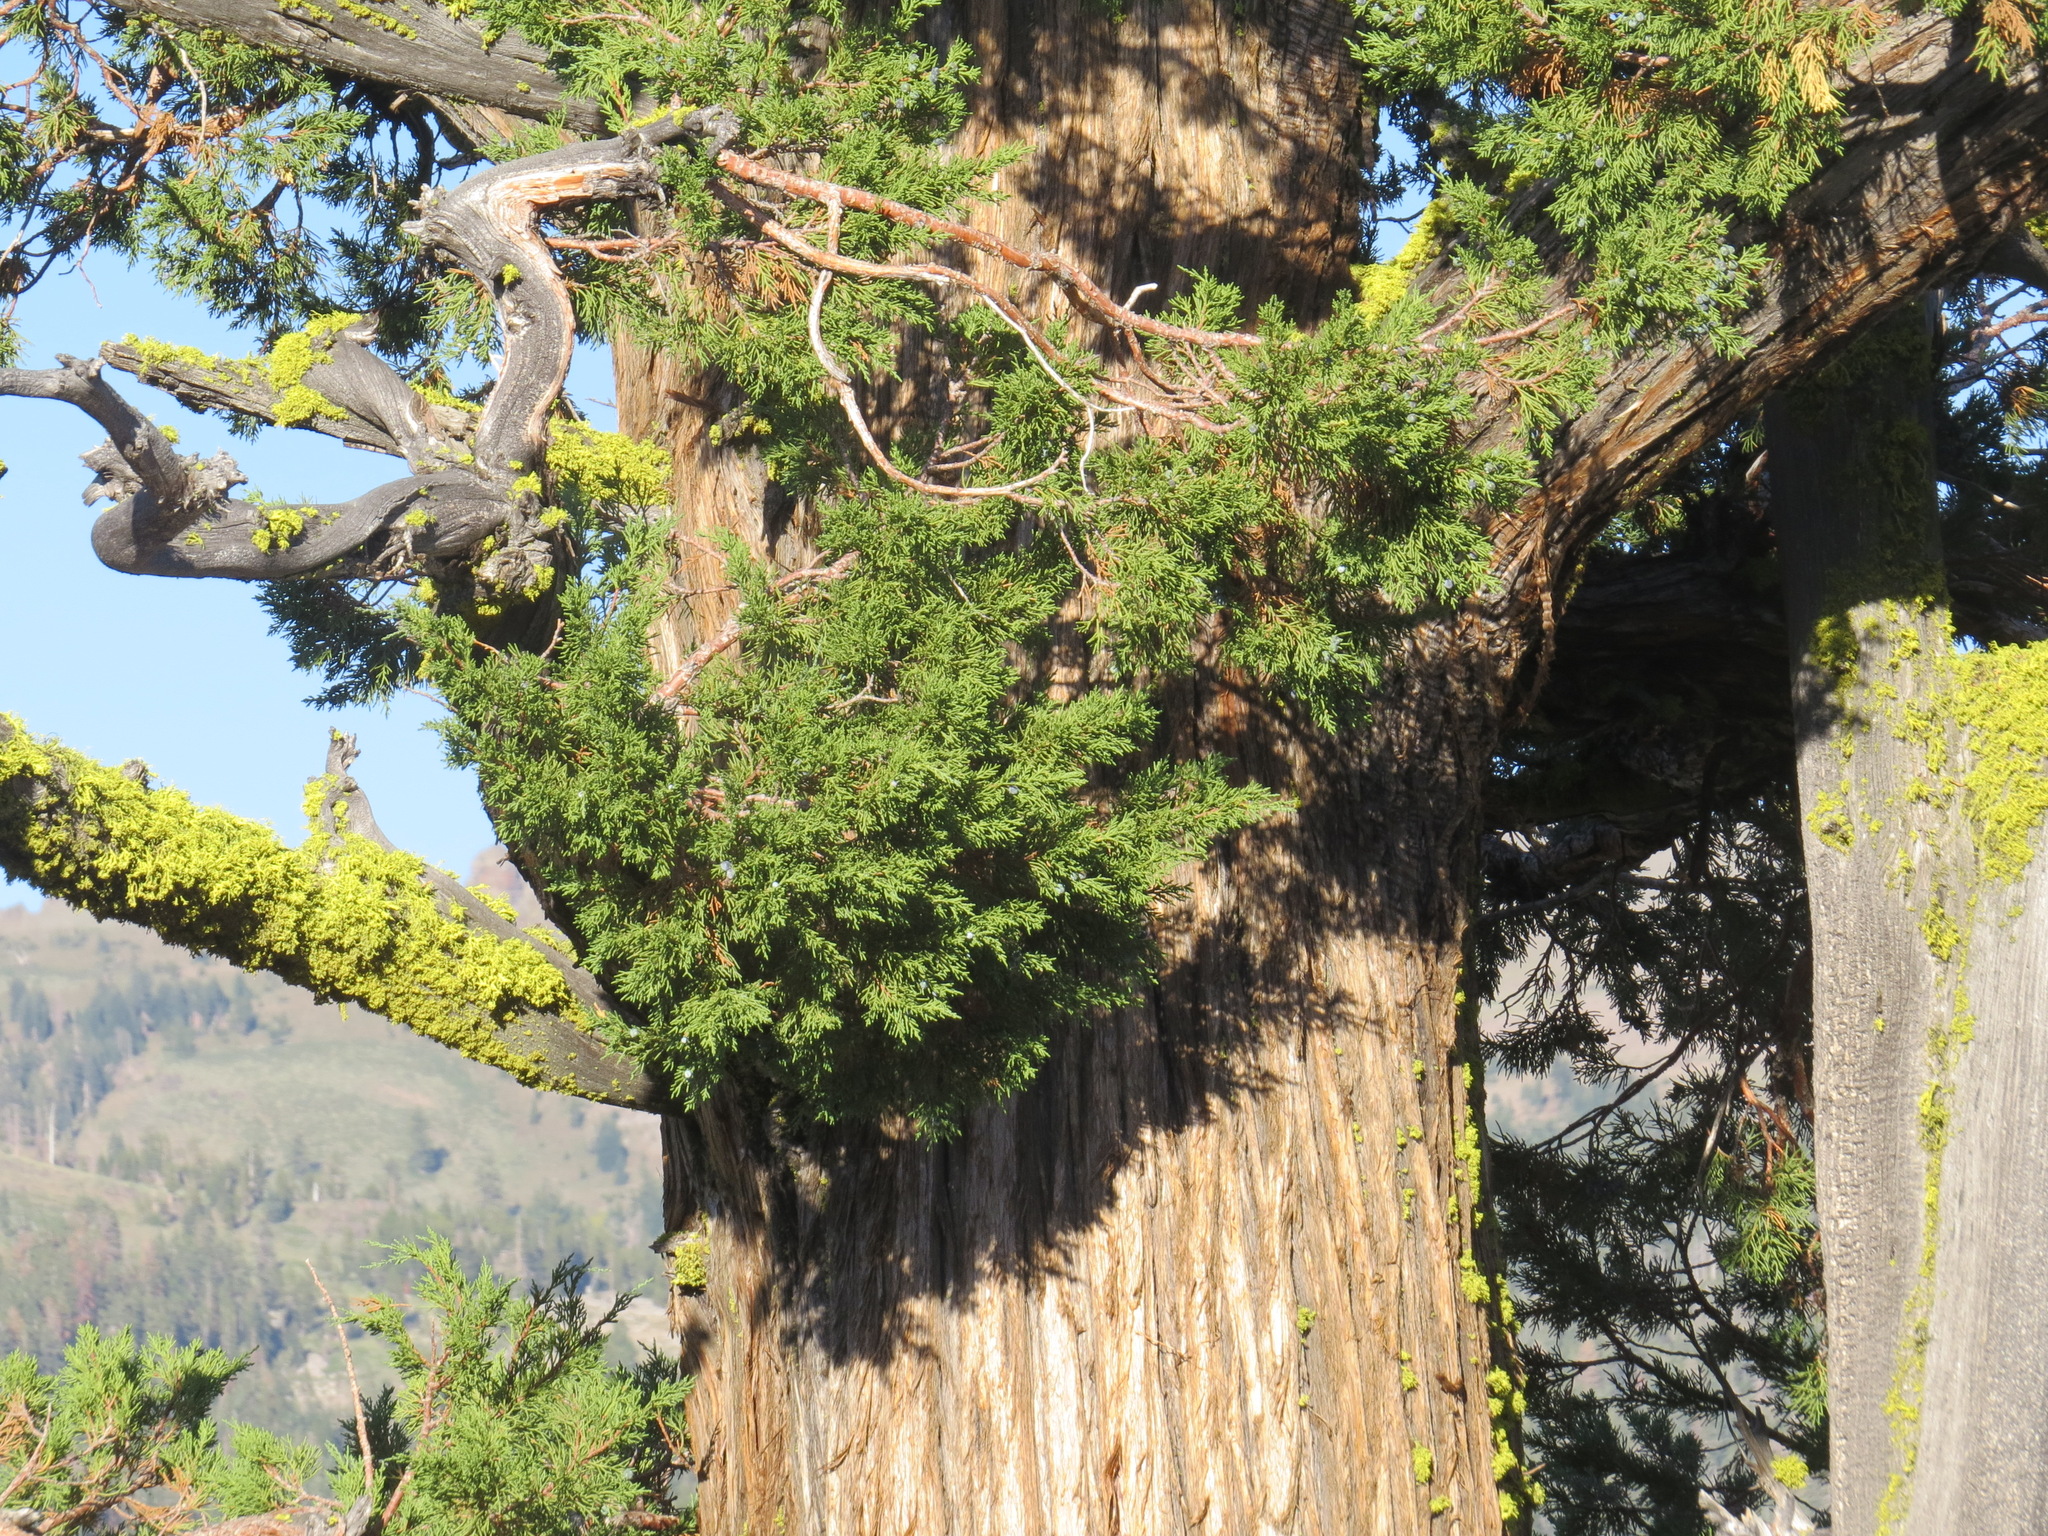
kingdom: Plantae
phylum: Tracheophyta
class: Pinopsida
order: Pinales
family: Cupressaceae
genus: Juniperus
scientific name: Juniperus occidentalis
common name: Western juniper
